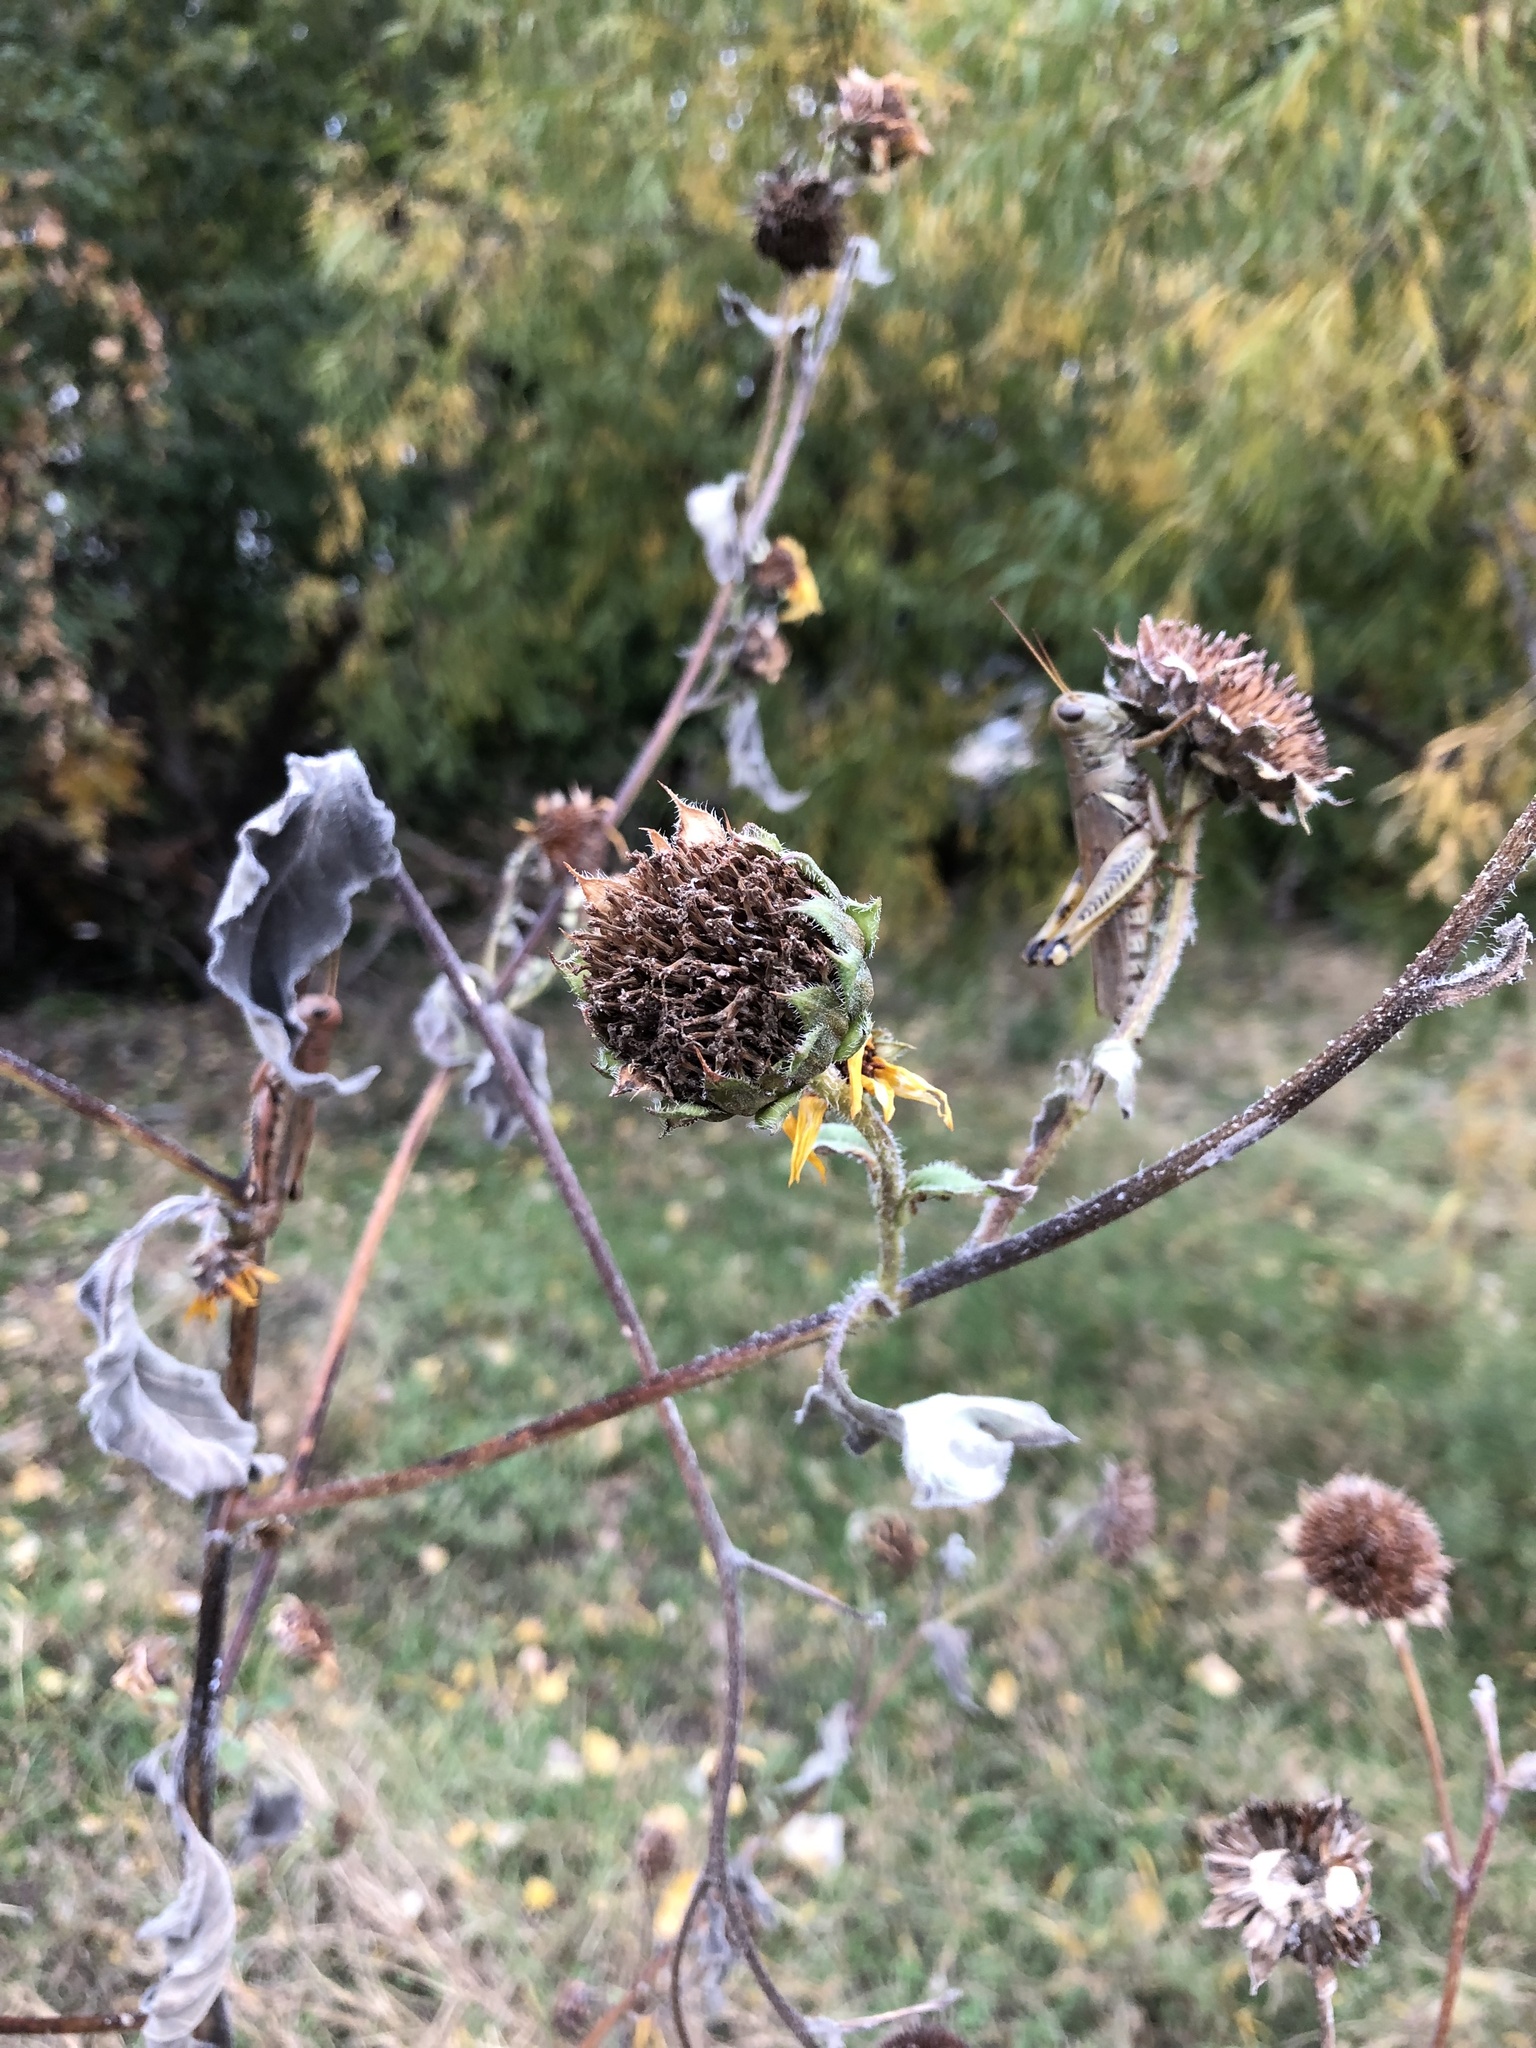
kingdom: Plantae
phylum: Tracheophyta
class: Magnoliopsida
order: Asterales
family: Asteraceae
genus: Helianthus
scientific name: Helianthus annuus
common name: Sunflower
